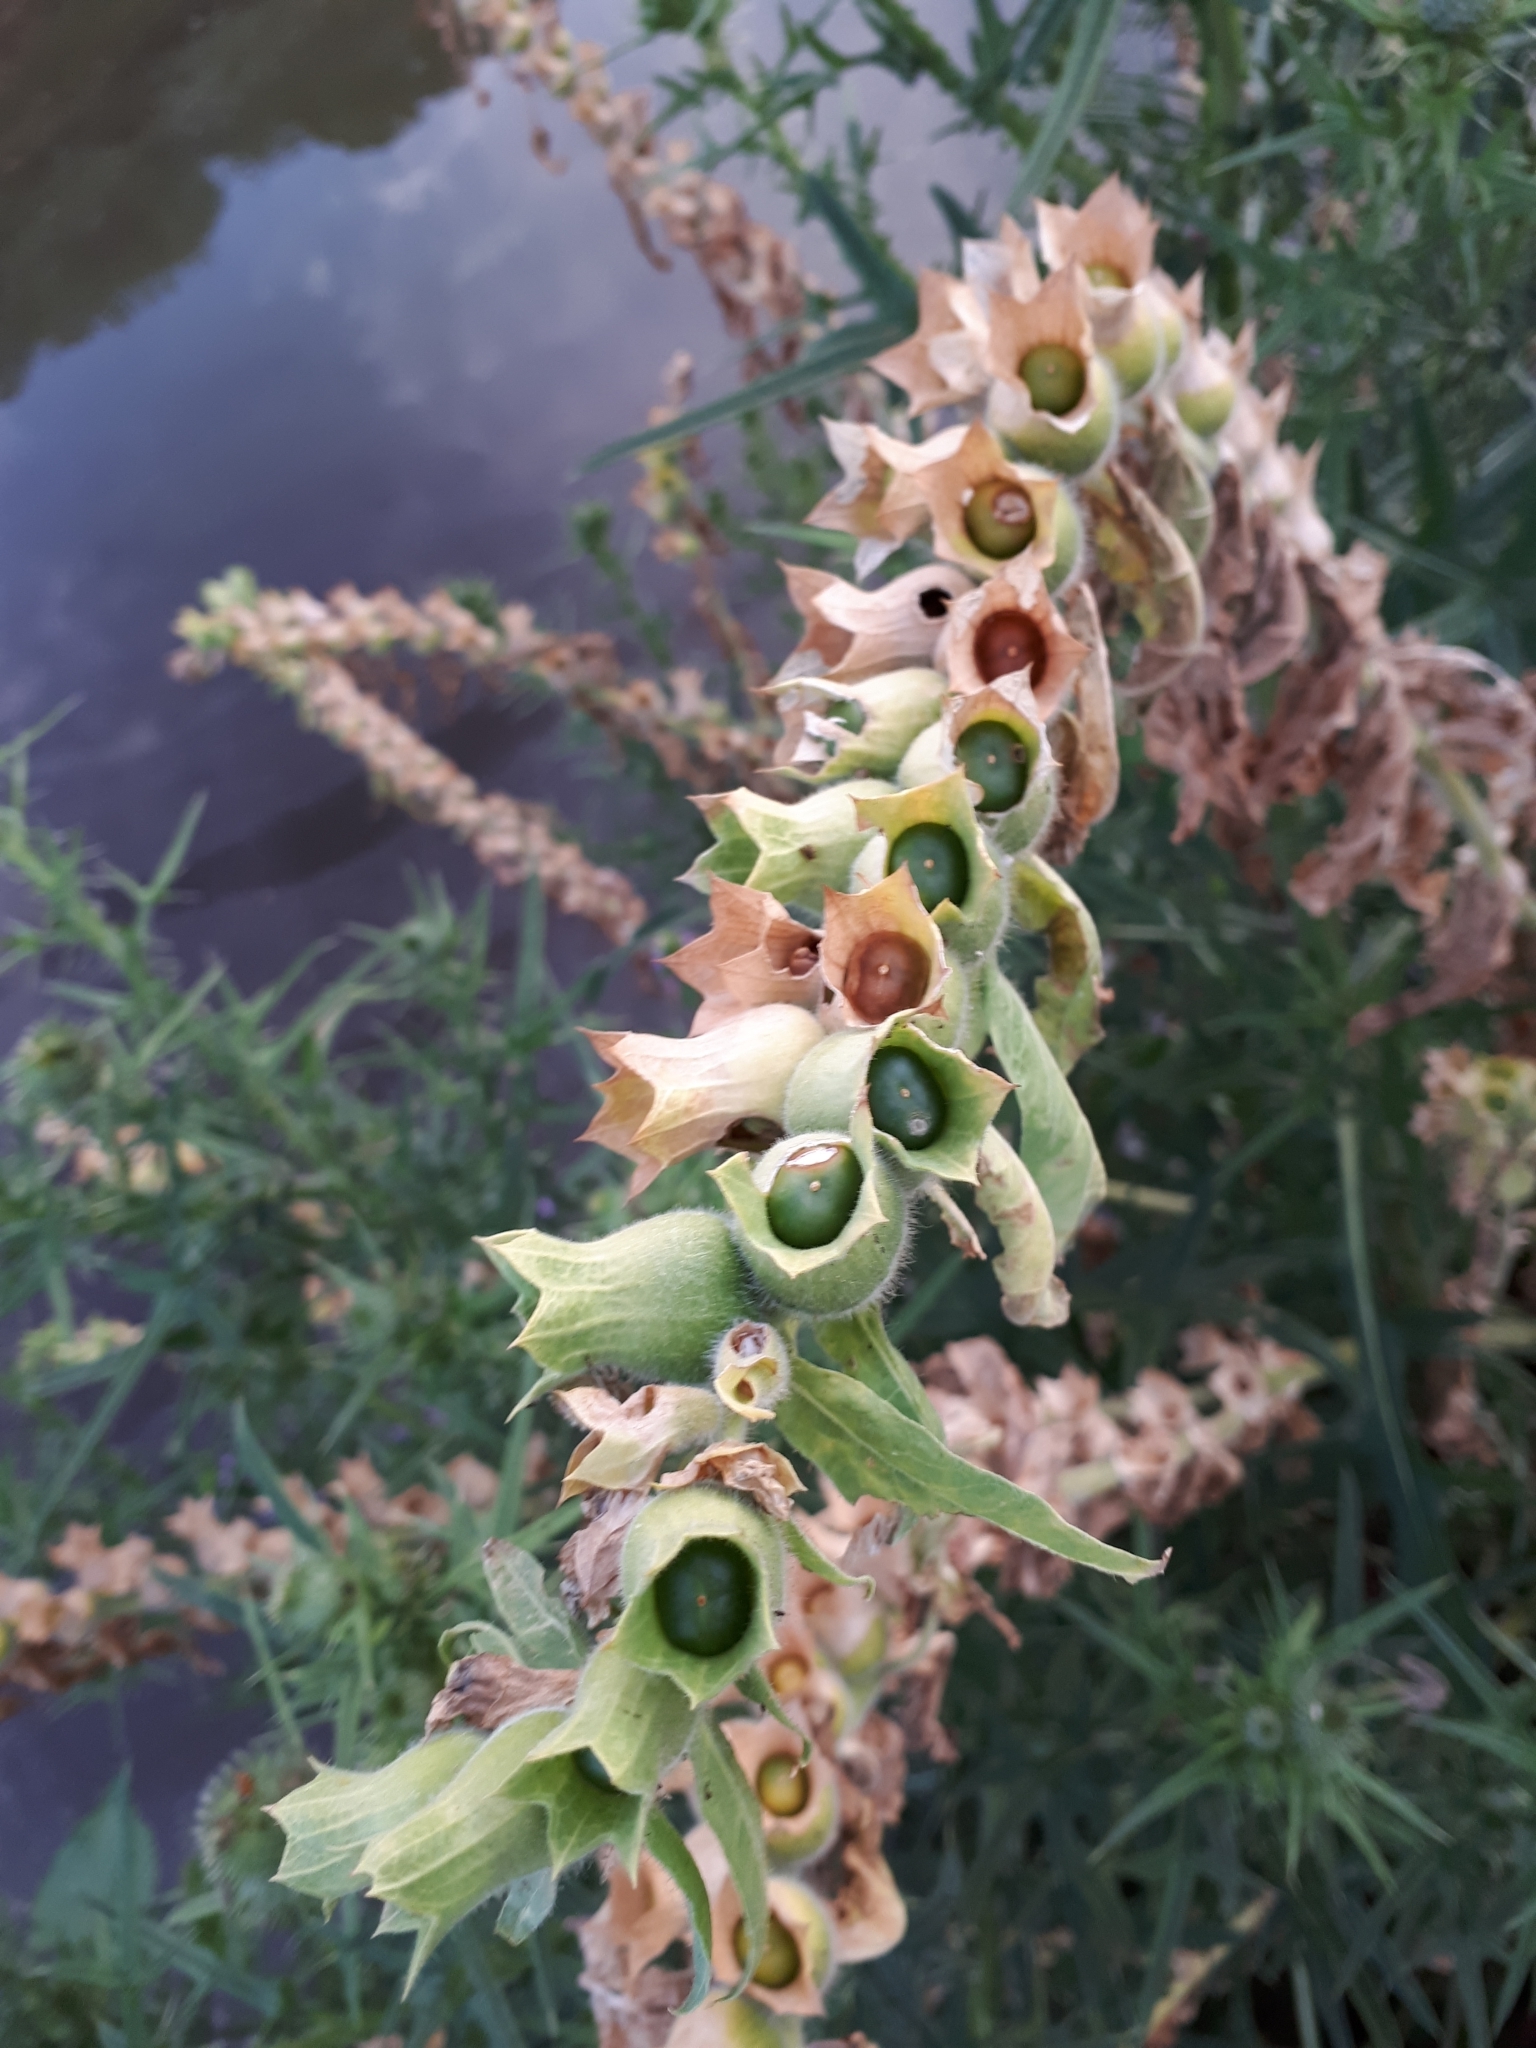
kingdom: Plantae
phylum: Tracheophyta
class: Magnoliopsida
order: Solanales
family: Solanaceae
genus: Hyoscyamus
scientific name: Hyoscyamus niger
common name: Henbane
